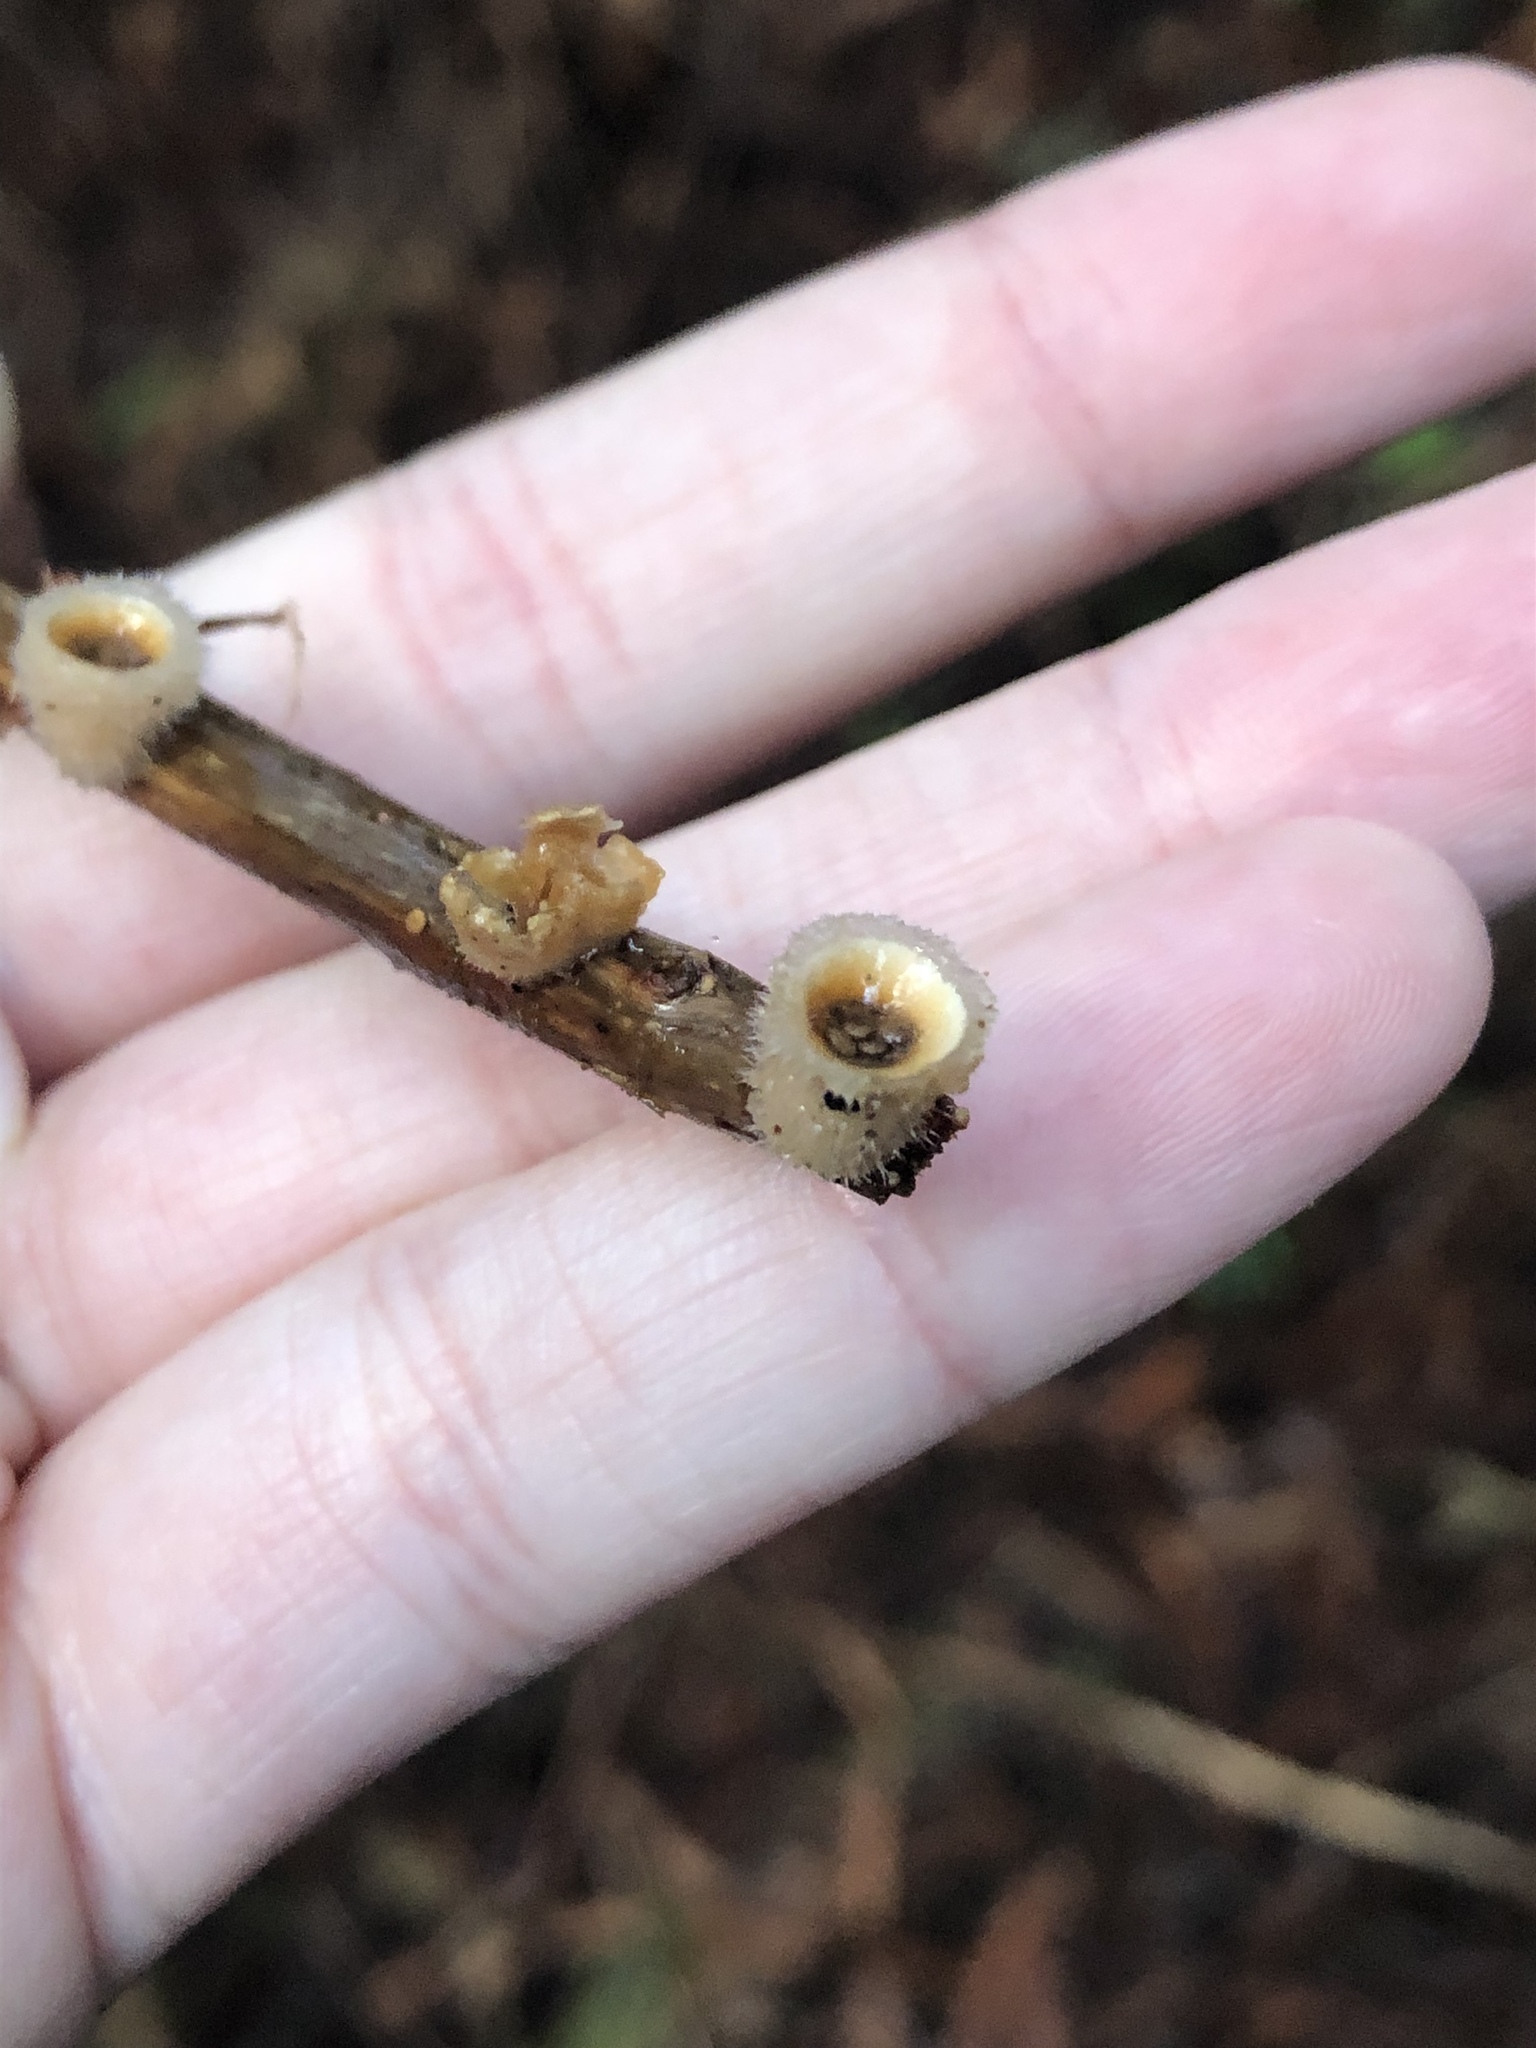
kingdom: Fungi
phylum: Basidiomycota
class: Agaricomycetes
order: Agaricales
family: Agaricaceae
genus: Nidula
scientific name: Nidula niveotomentosa
